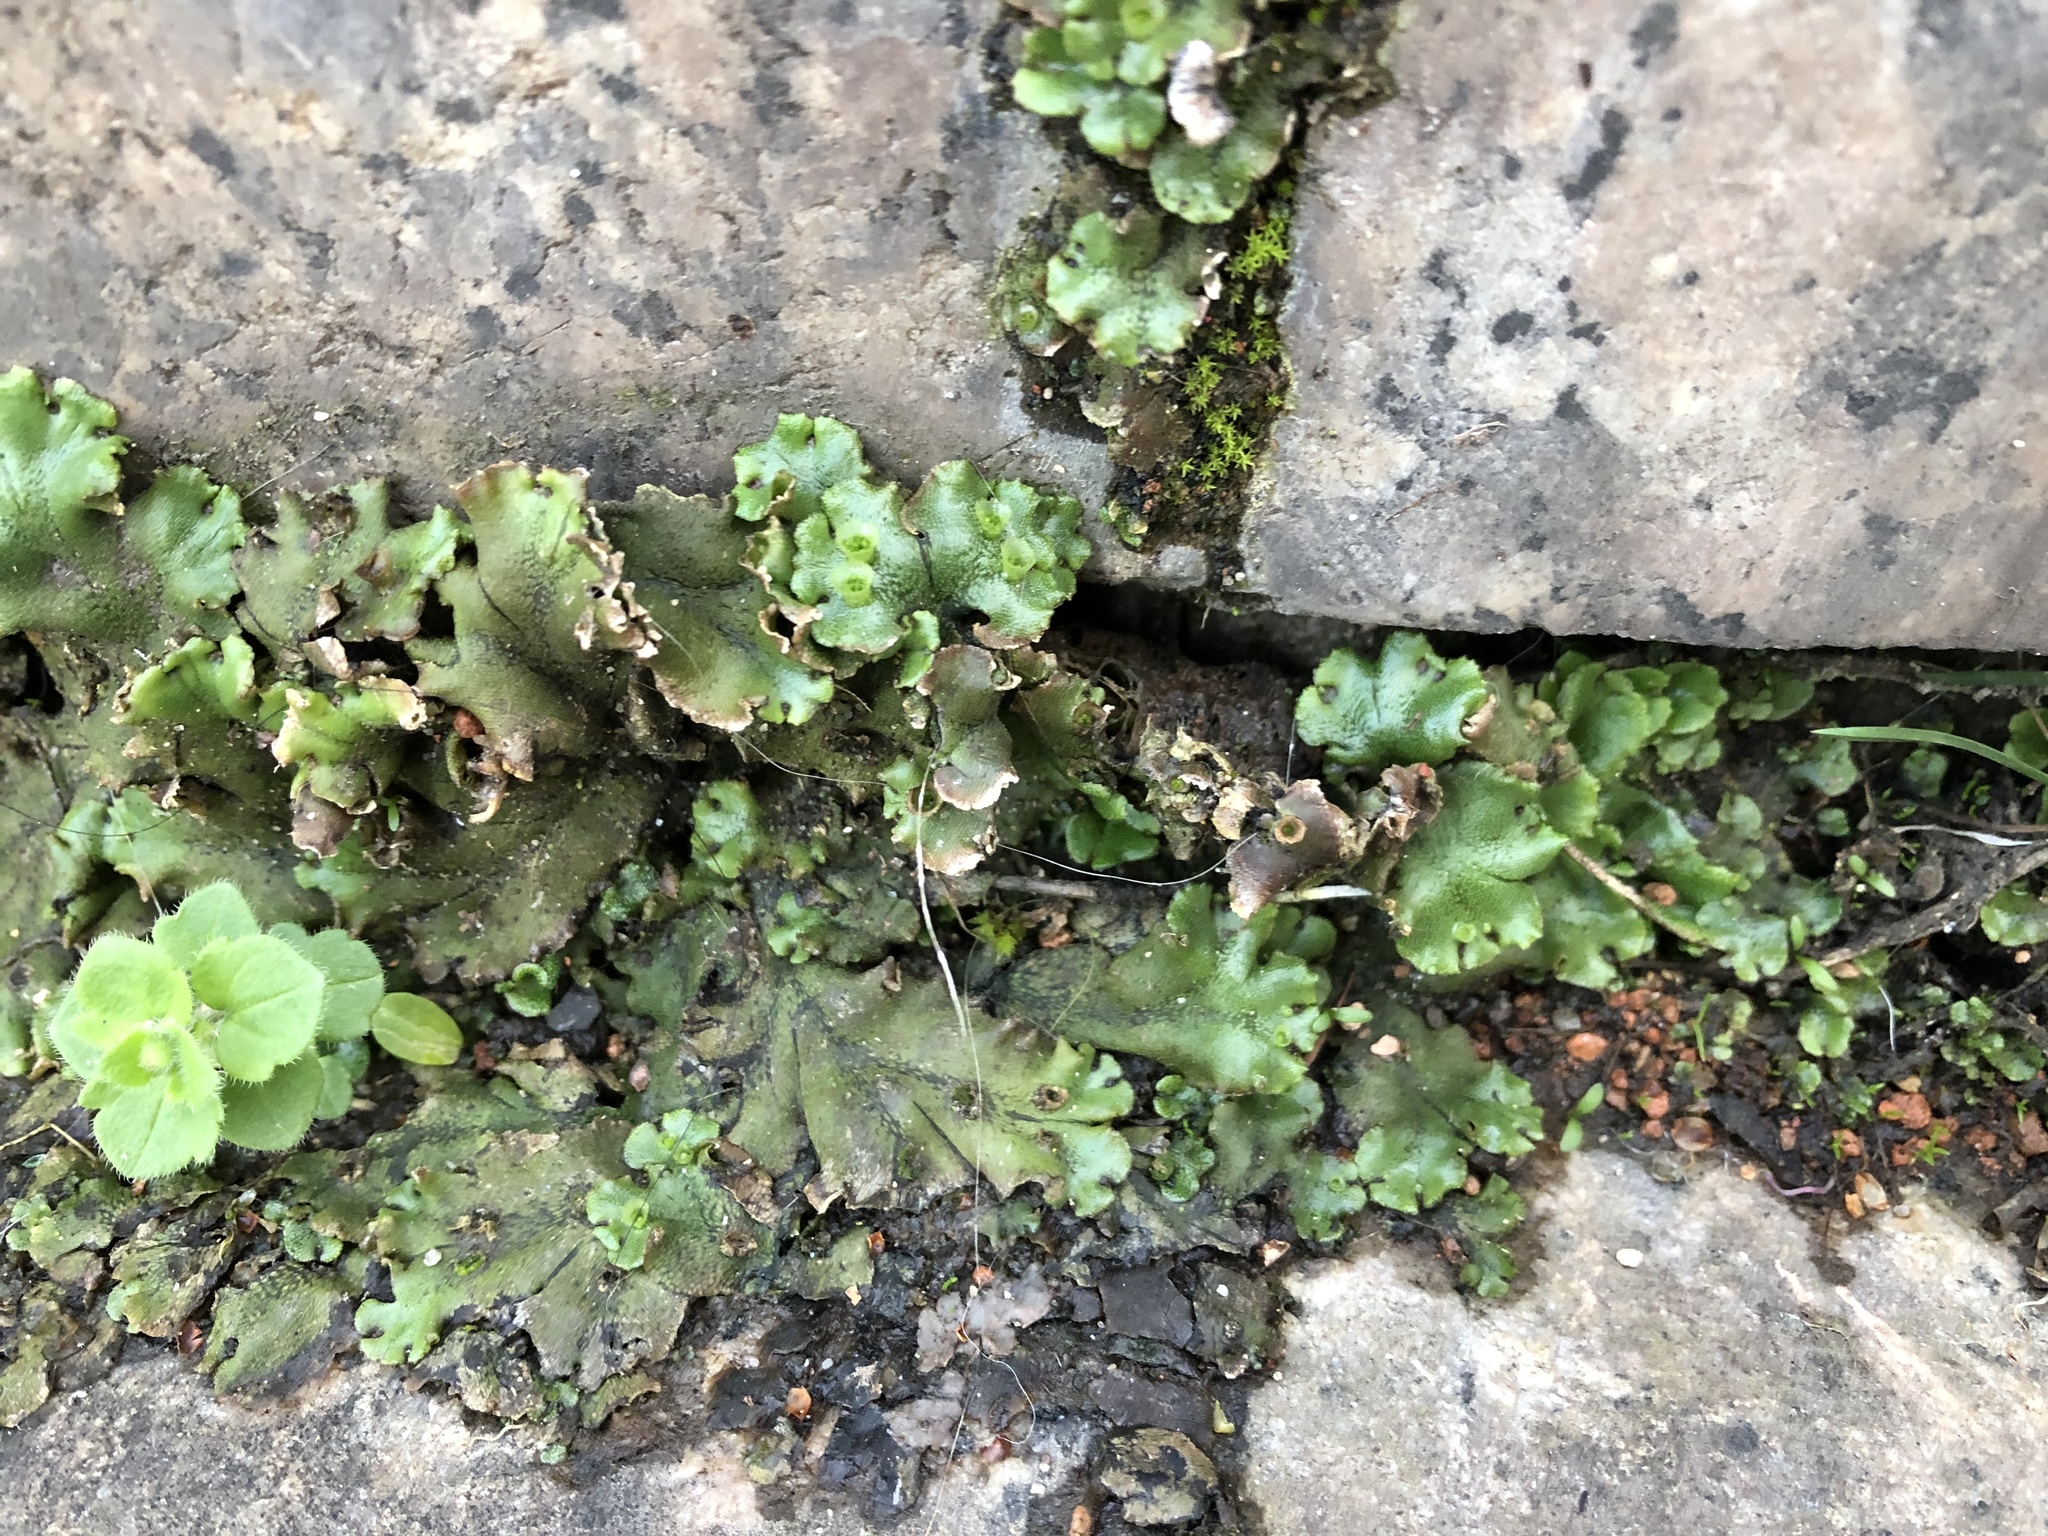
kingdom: Plantae
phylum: Marchantiophyta
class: Marchantiopsida
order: Marchantiales
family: Marchantiaceae
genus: Marchantia
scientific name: Marchantia polymorpha
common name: Common liverwort
